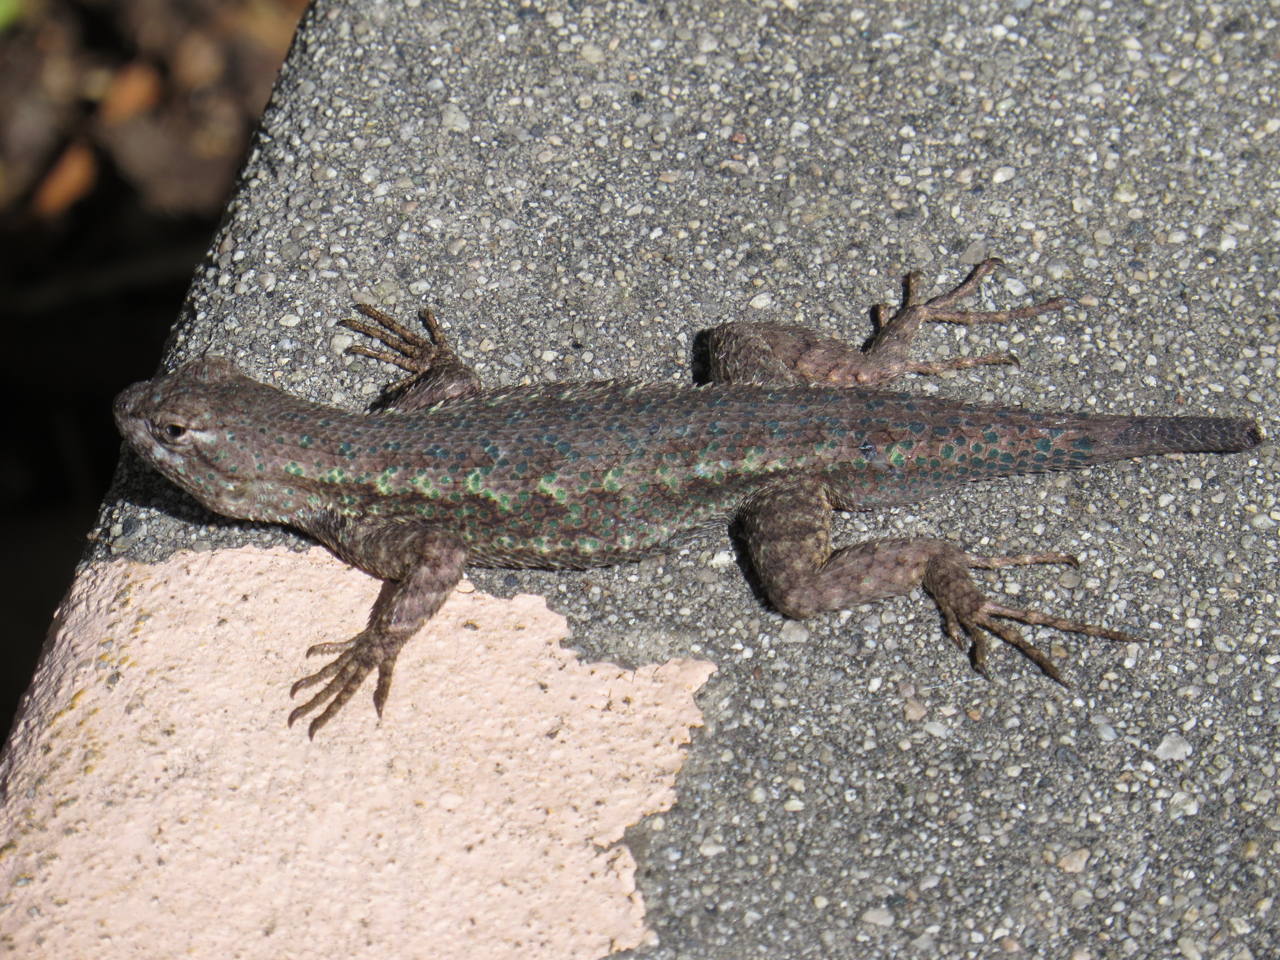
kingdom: Animalia
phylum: Chordata
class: Squamata
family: Phrynosomatidae
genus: Sceloporus
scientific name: Sceloporus occidentalis
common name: Western fence lizard
